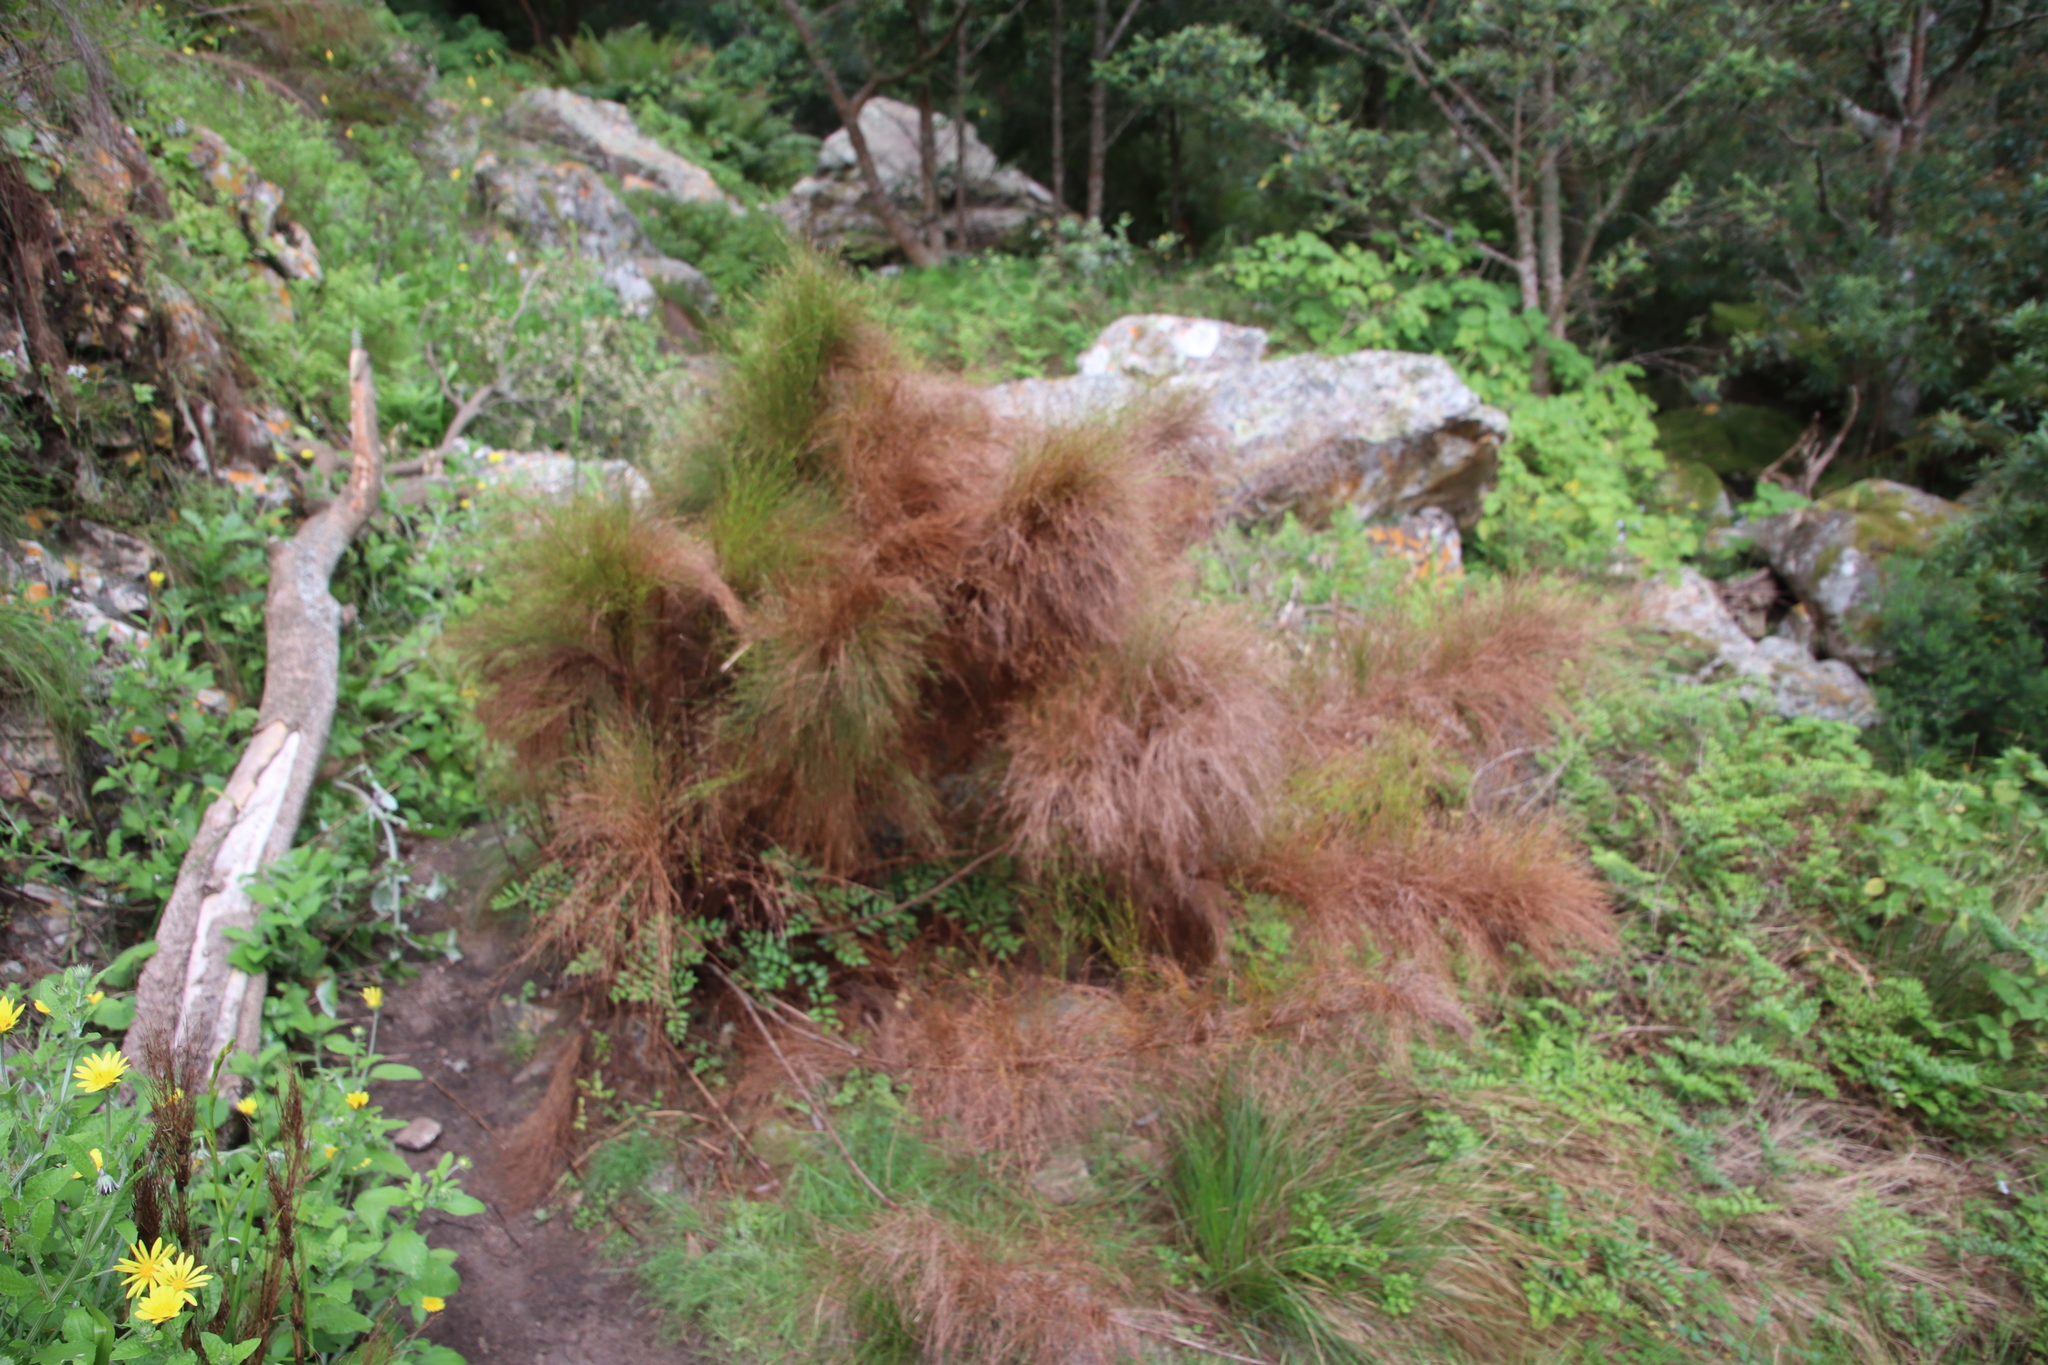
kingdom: Plantae
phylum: Tracheophyta
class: Liliopsida
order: Poales
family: Restionaceae
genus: Restio
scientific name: Restio subverticillatus
